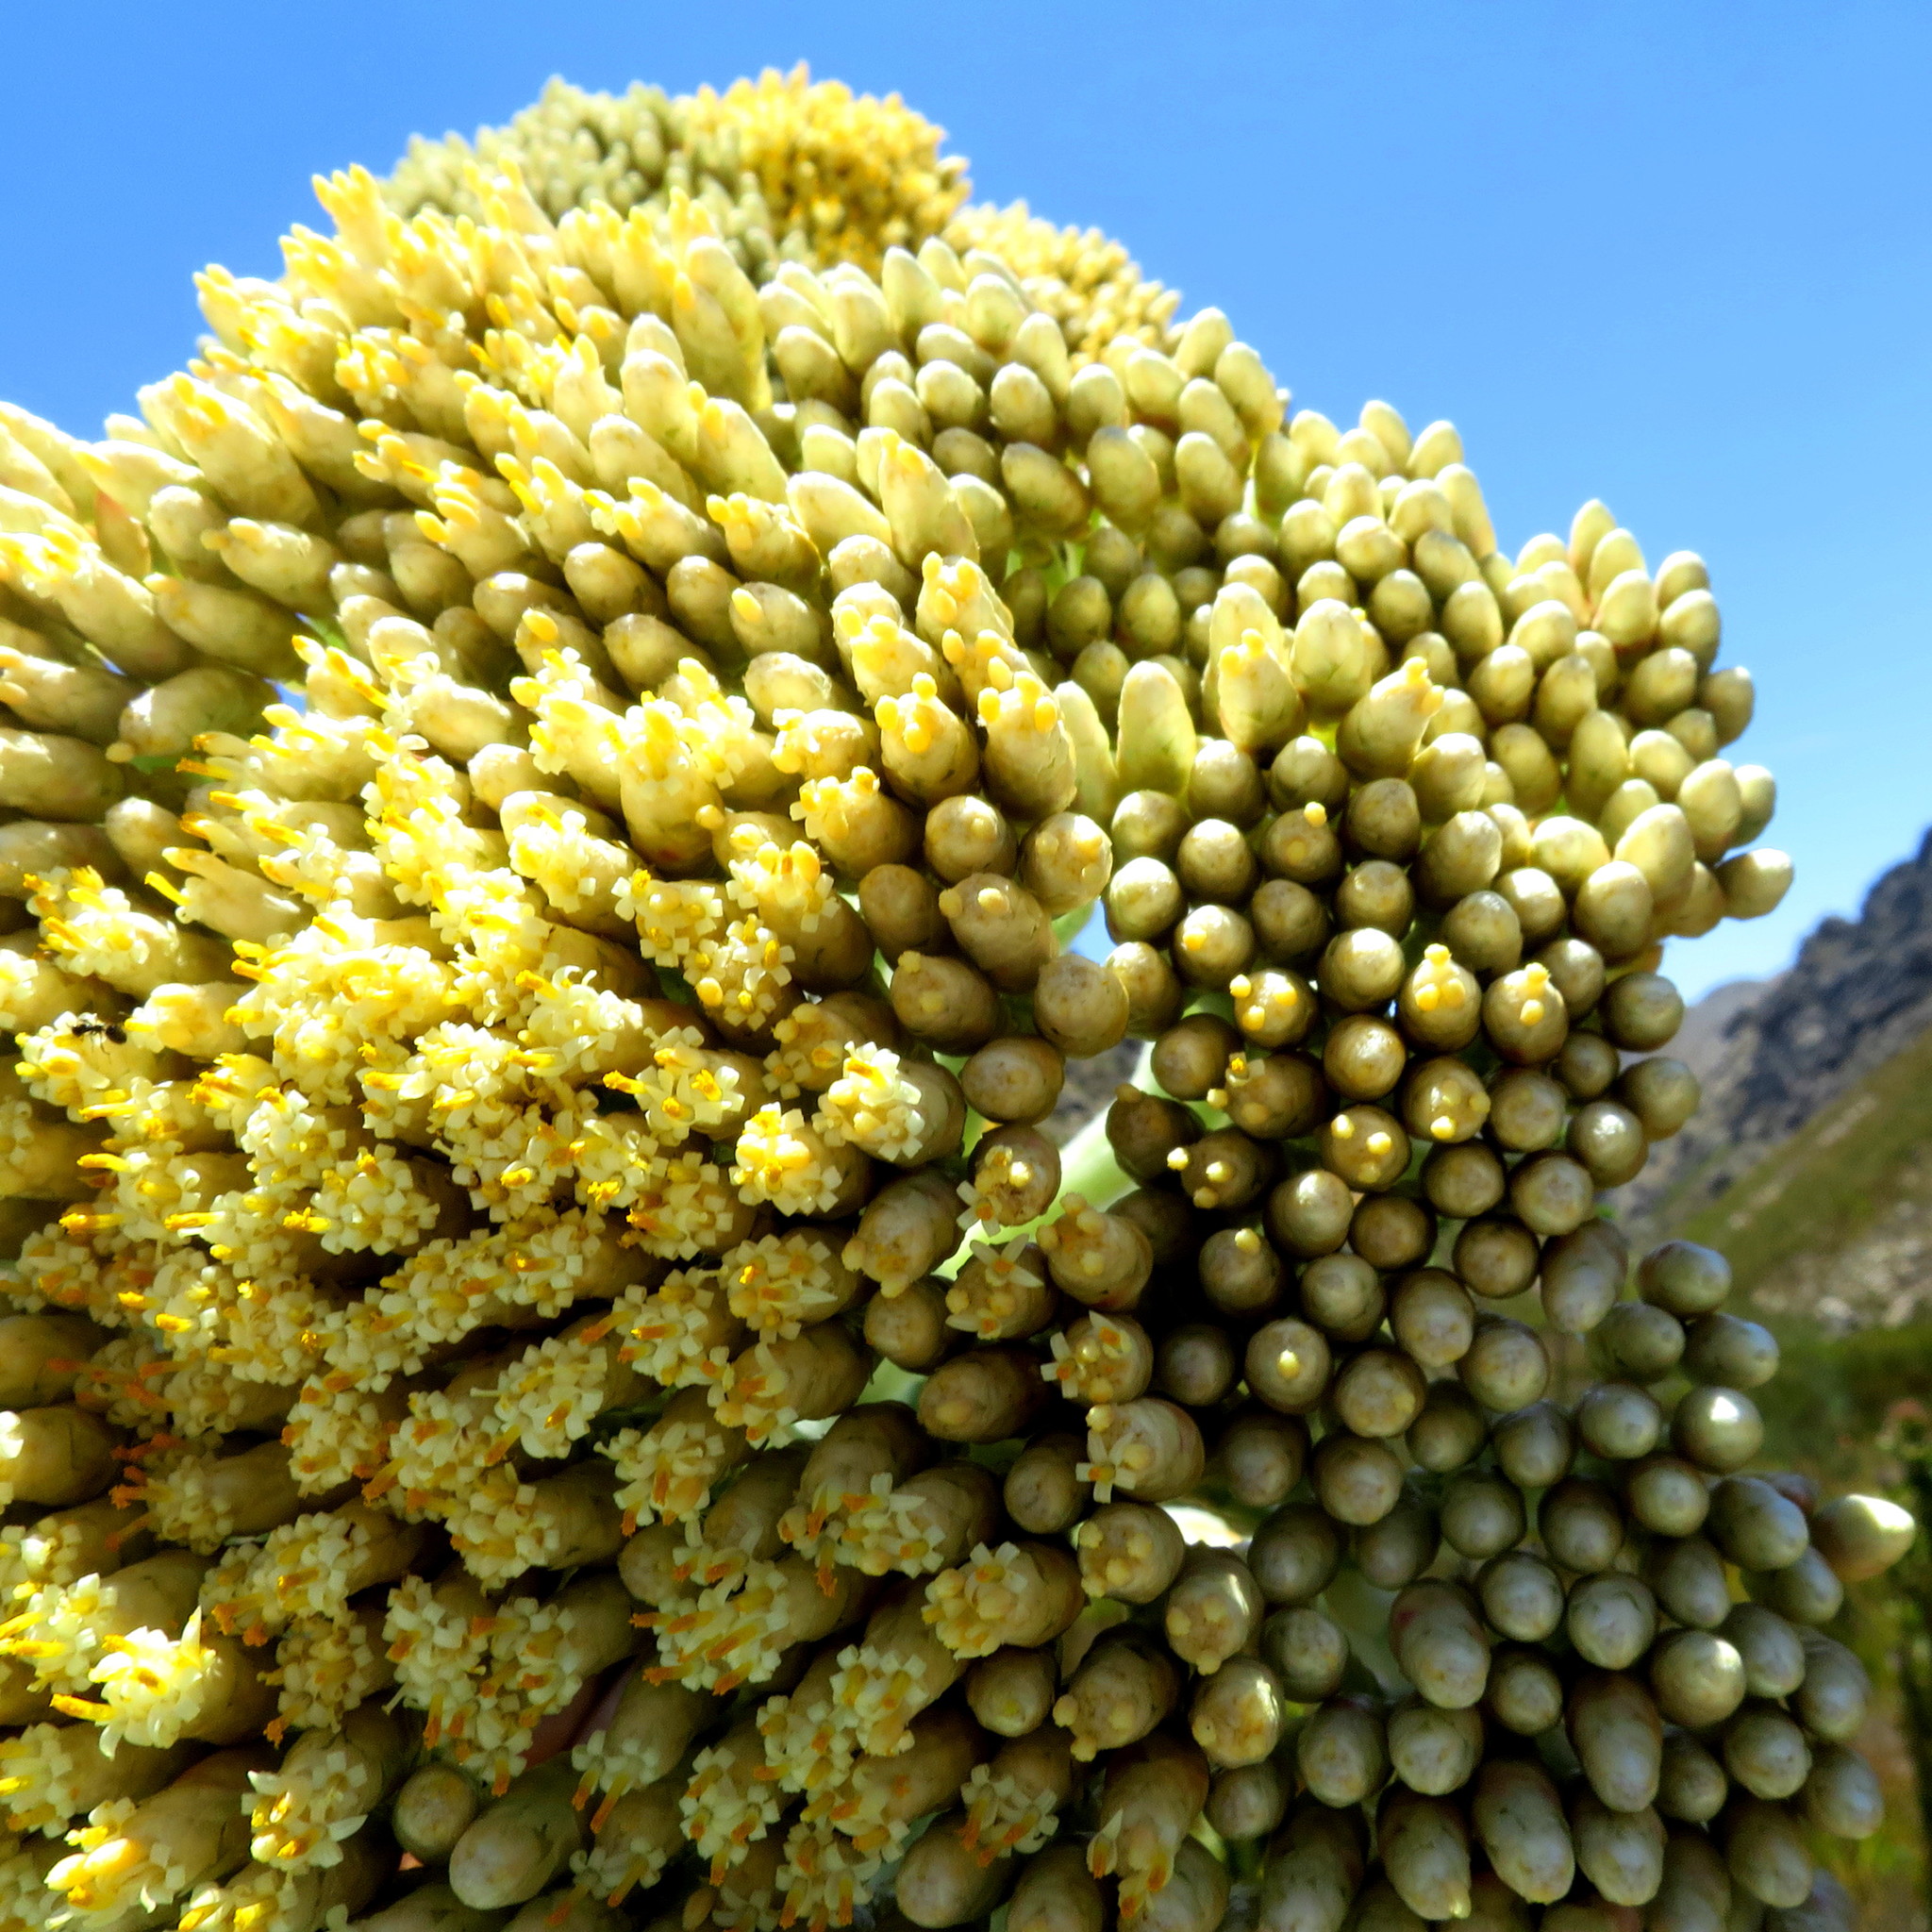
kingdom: Plantae
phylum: Tracheophyta
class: Magnoliopsida
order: Asterales
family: Asteraceae
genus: Syncarpha
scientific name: Syncarpha milleflora
